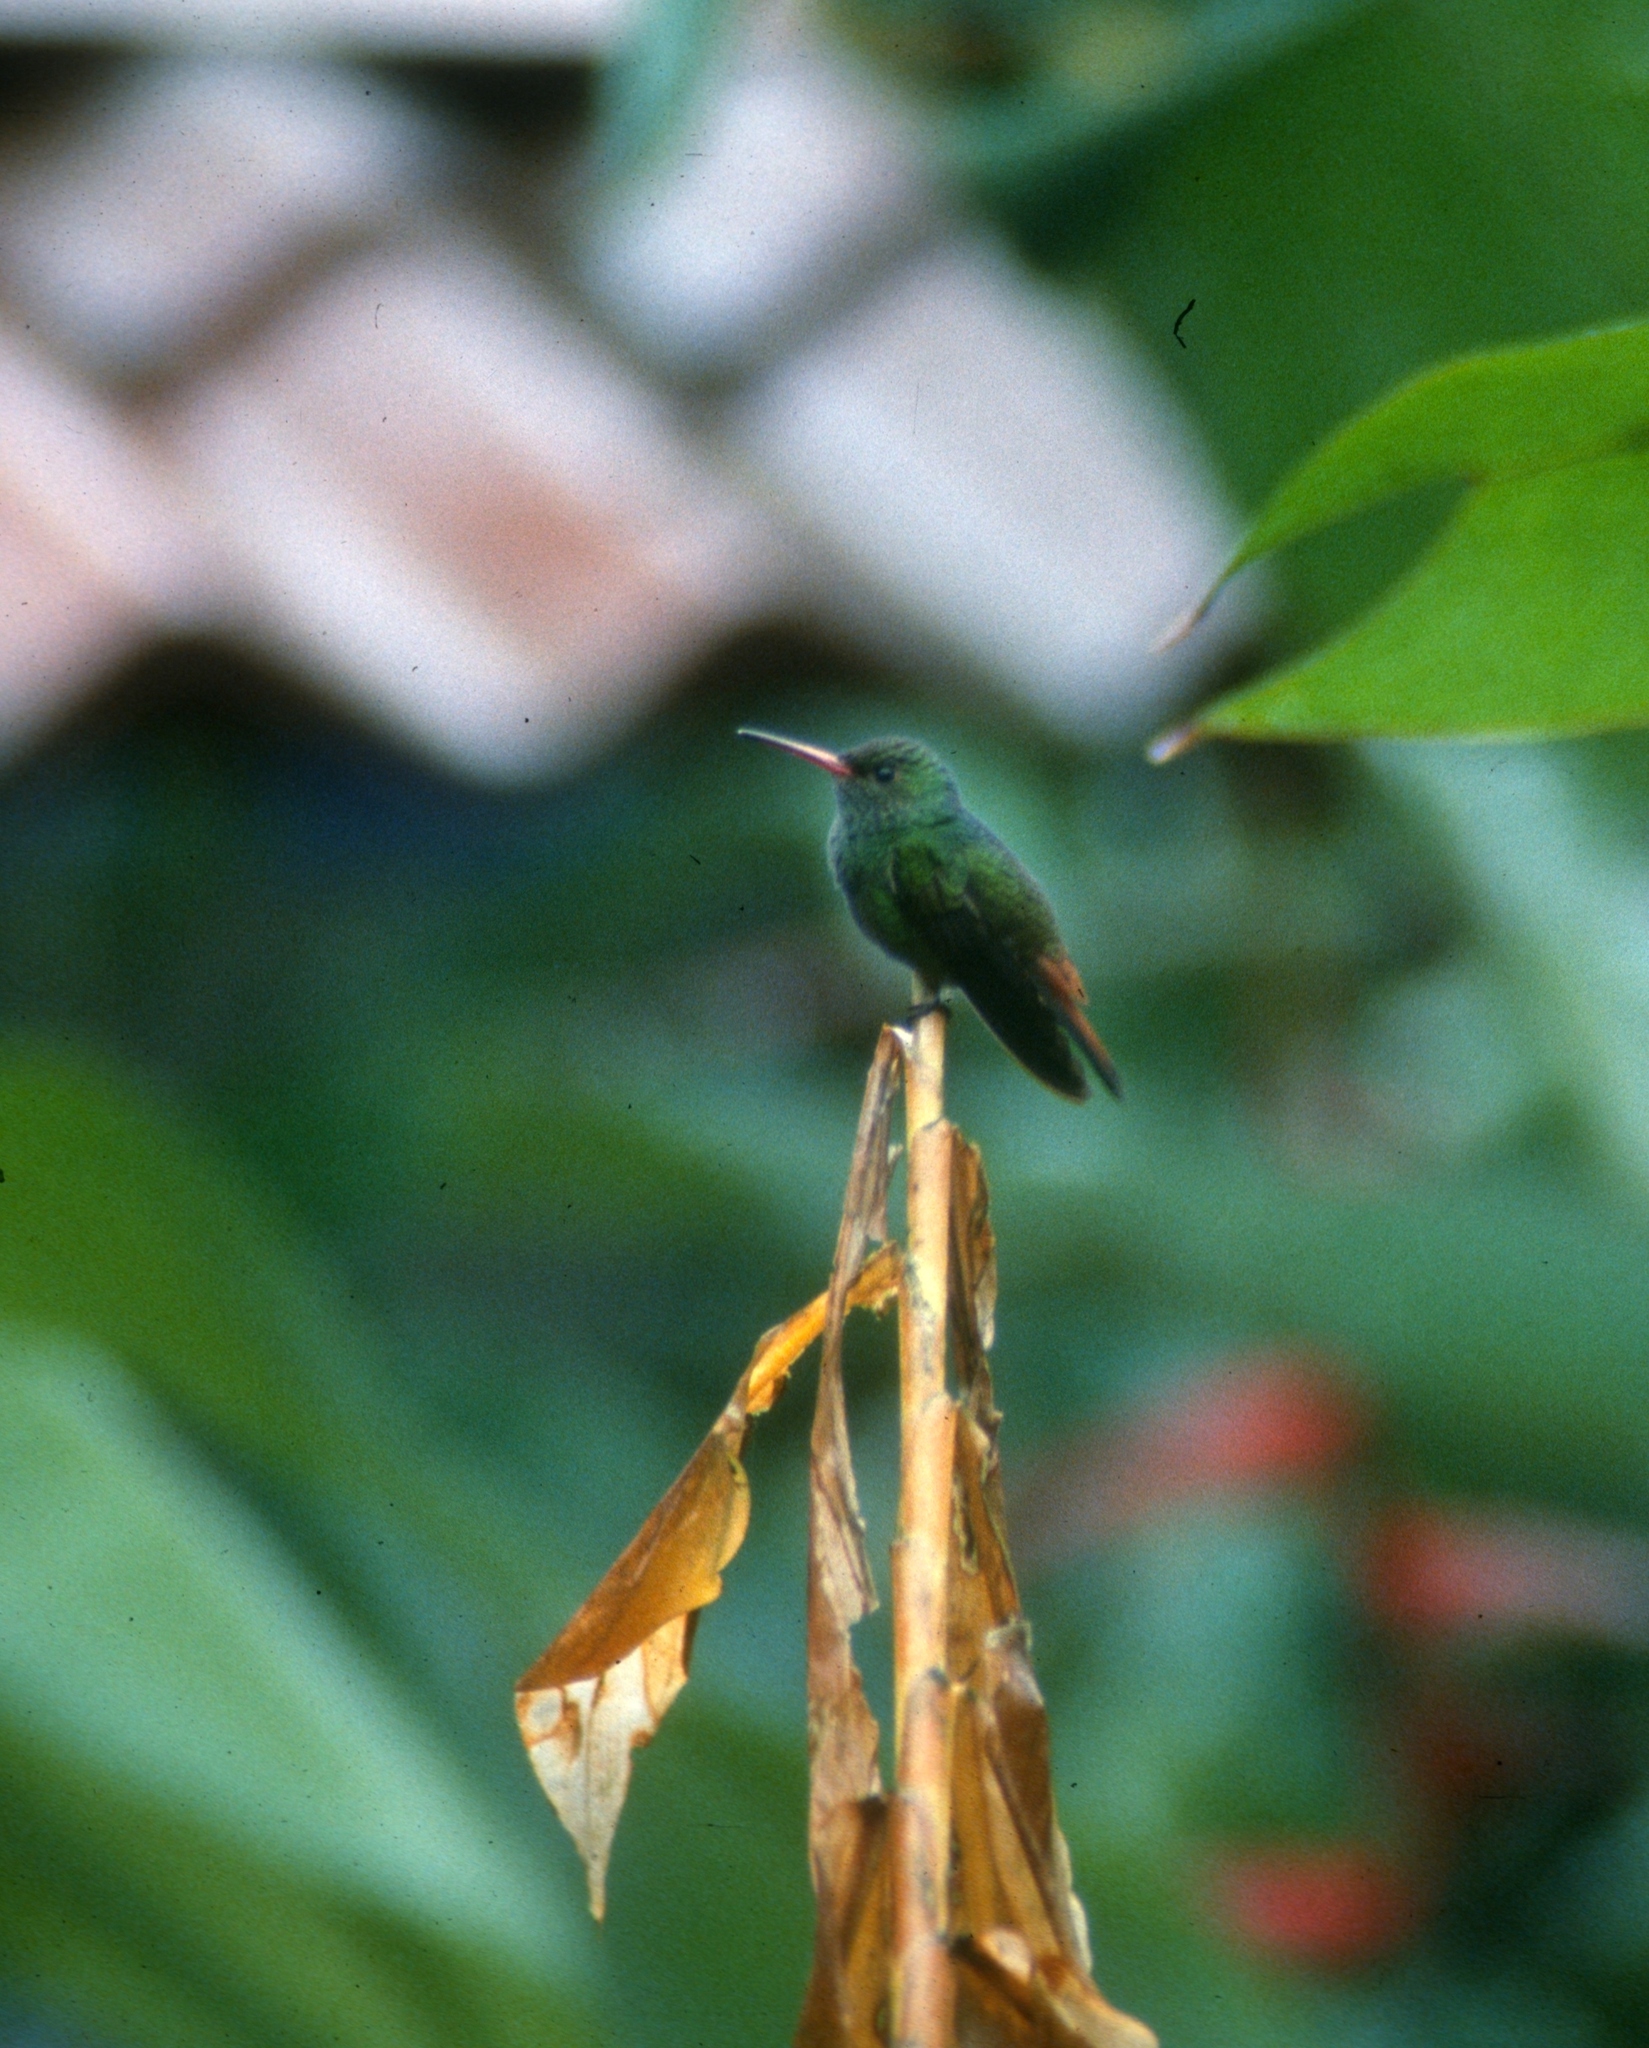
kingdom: Animalia
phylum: Chordata
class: Aves
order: Apodiformes
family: Trochilidae
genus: Amazilia
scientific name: Amazilia tzacatl
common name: Rufous-tailed hummingbird
